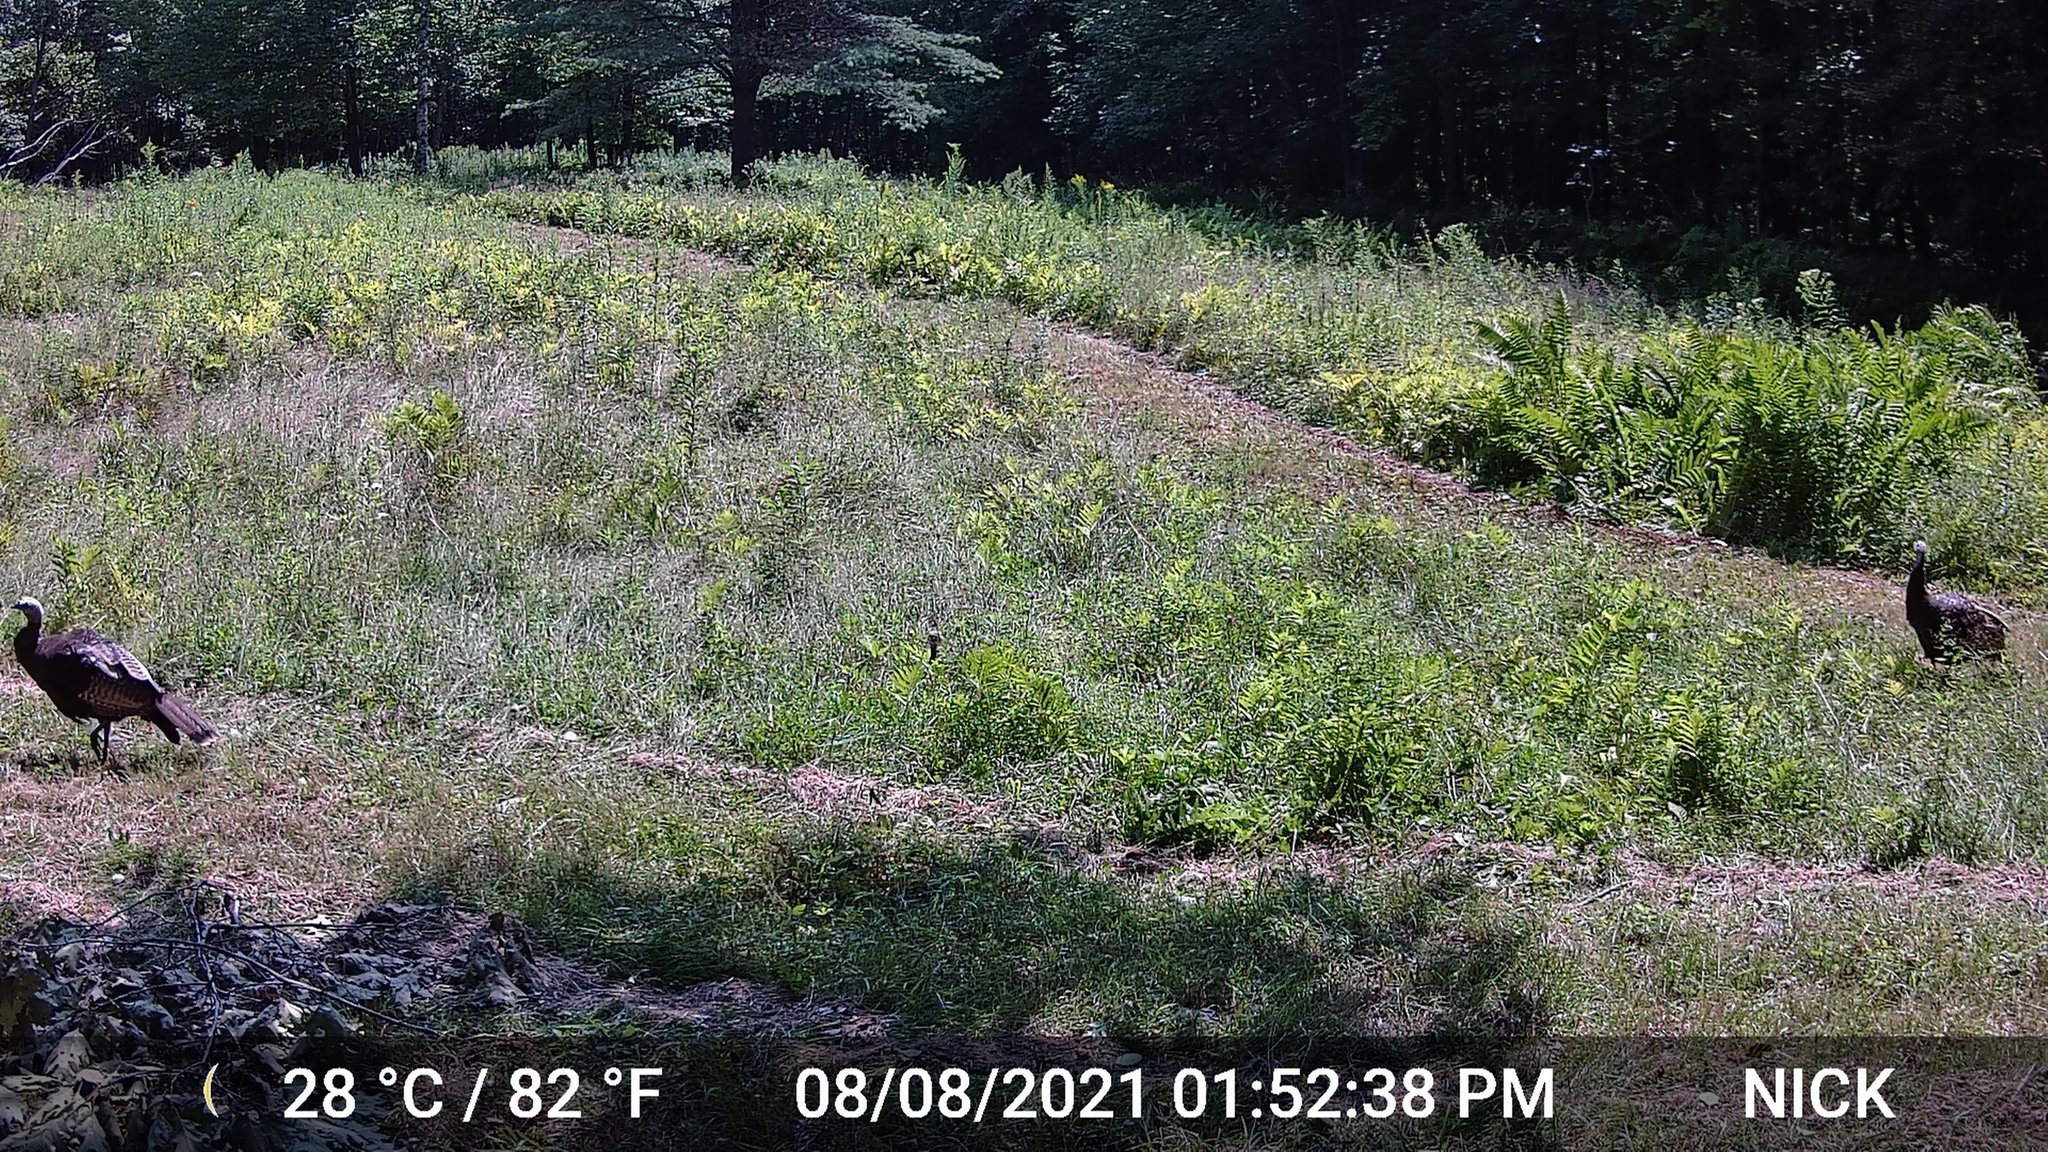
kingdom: Animalia
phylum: Chordata
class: Aves
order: Galliformes
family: Phasianidae
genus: Meleagris
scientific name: Meleagris gallopavo
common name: Wild turkey
